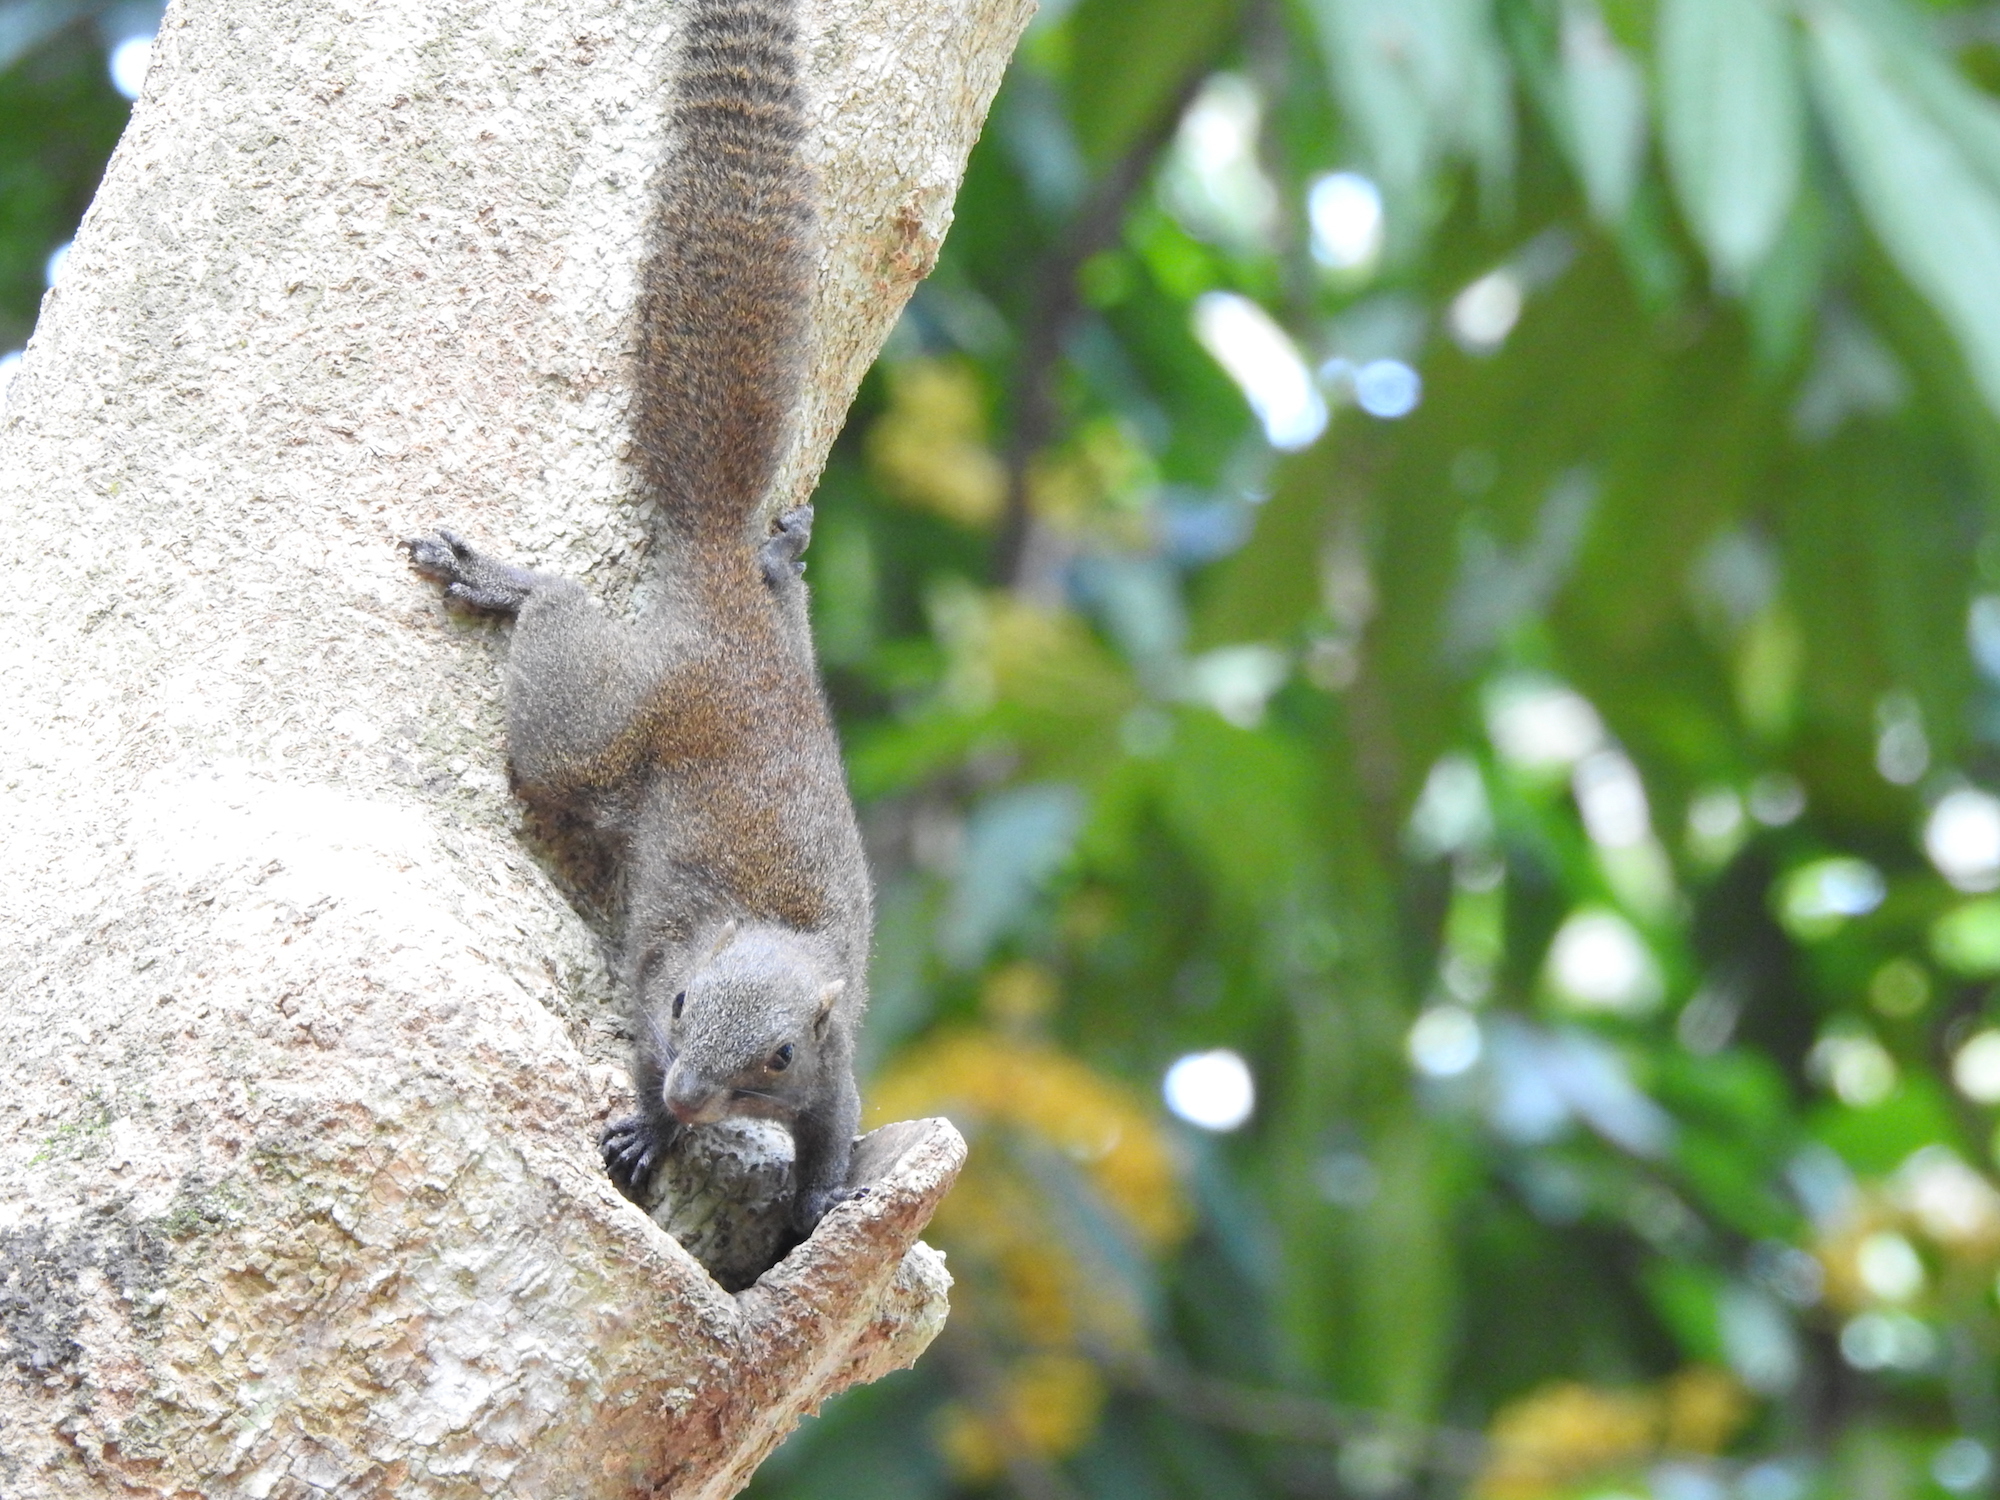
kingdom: Animalia
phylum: Chordata
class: Mammalia
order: Rodentia
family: Sciuridae
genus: Callosciurus
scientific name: Callosciurus caniceps
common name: Gray-bellied squirrel
